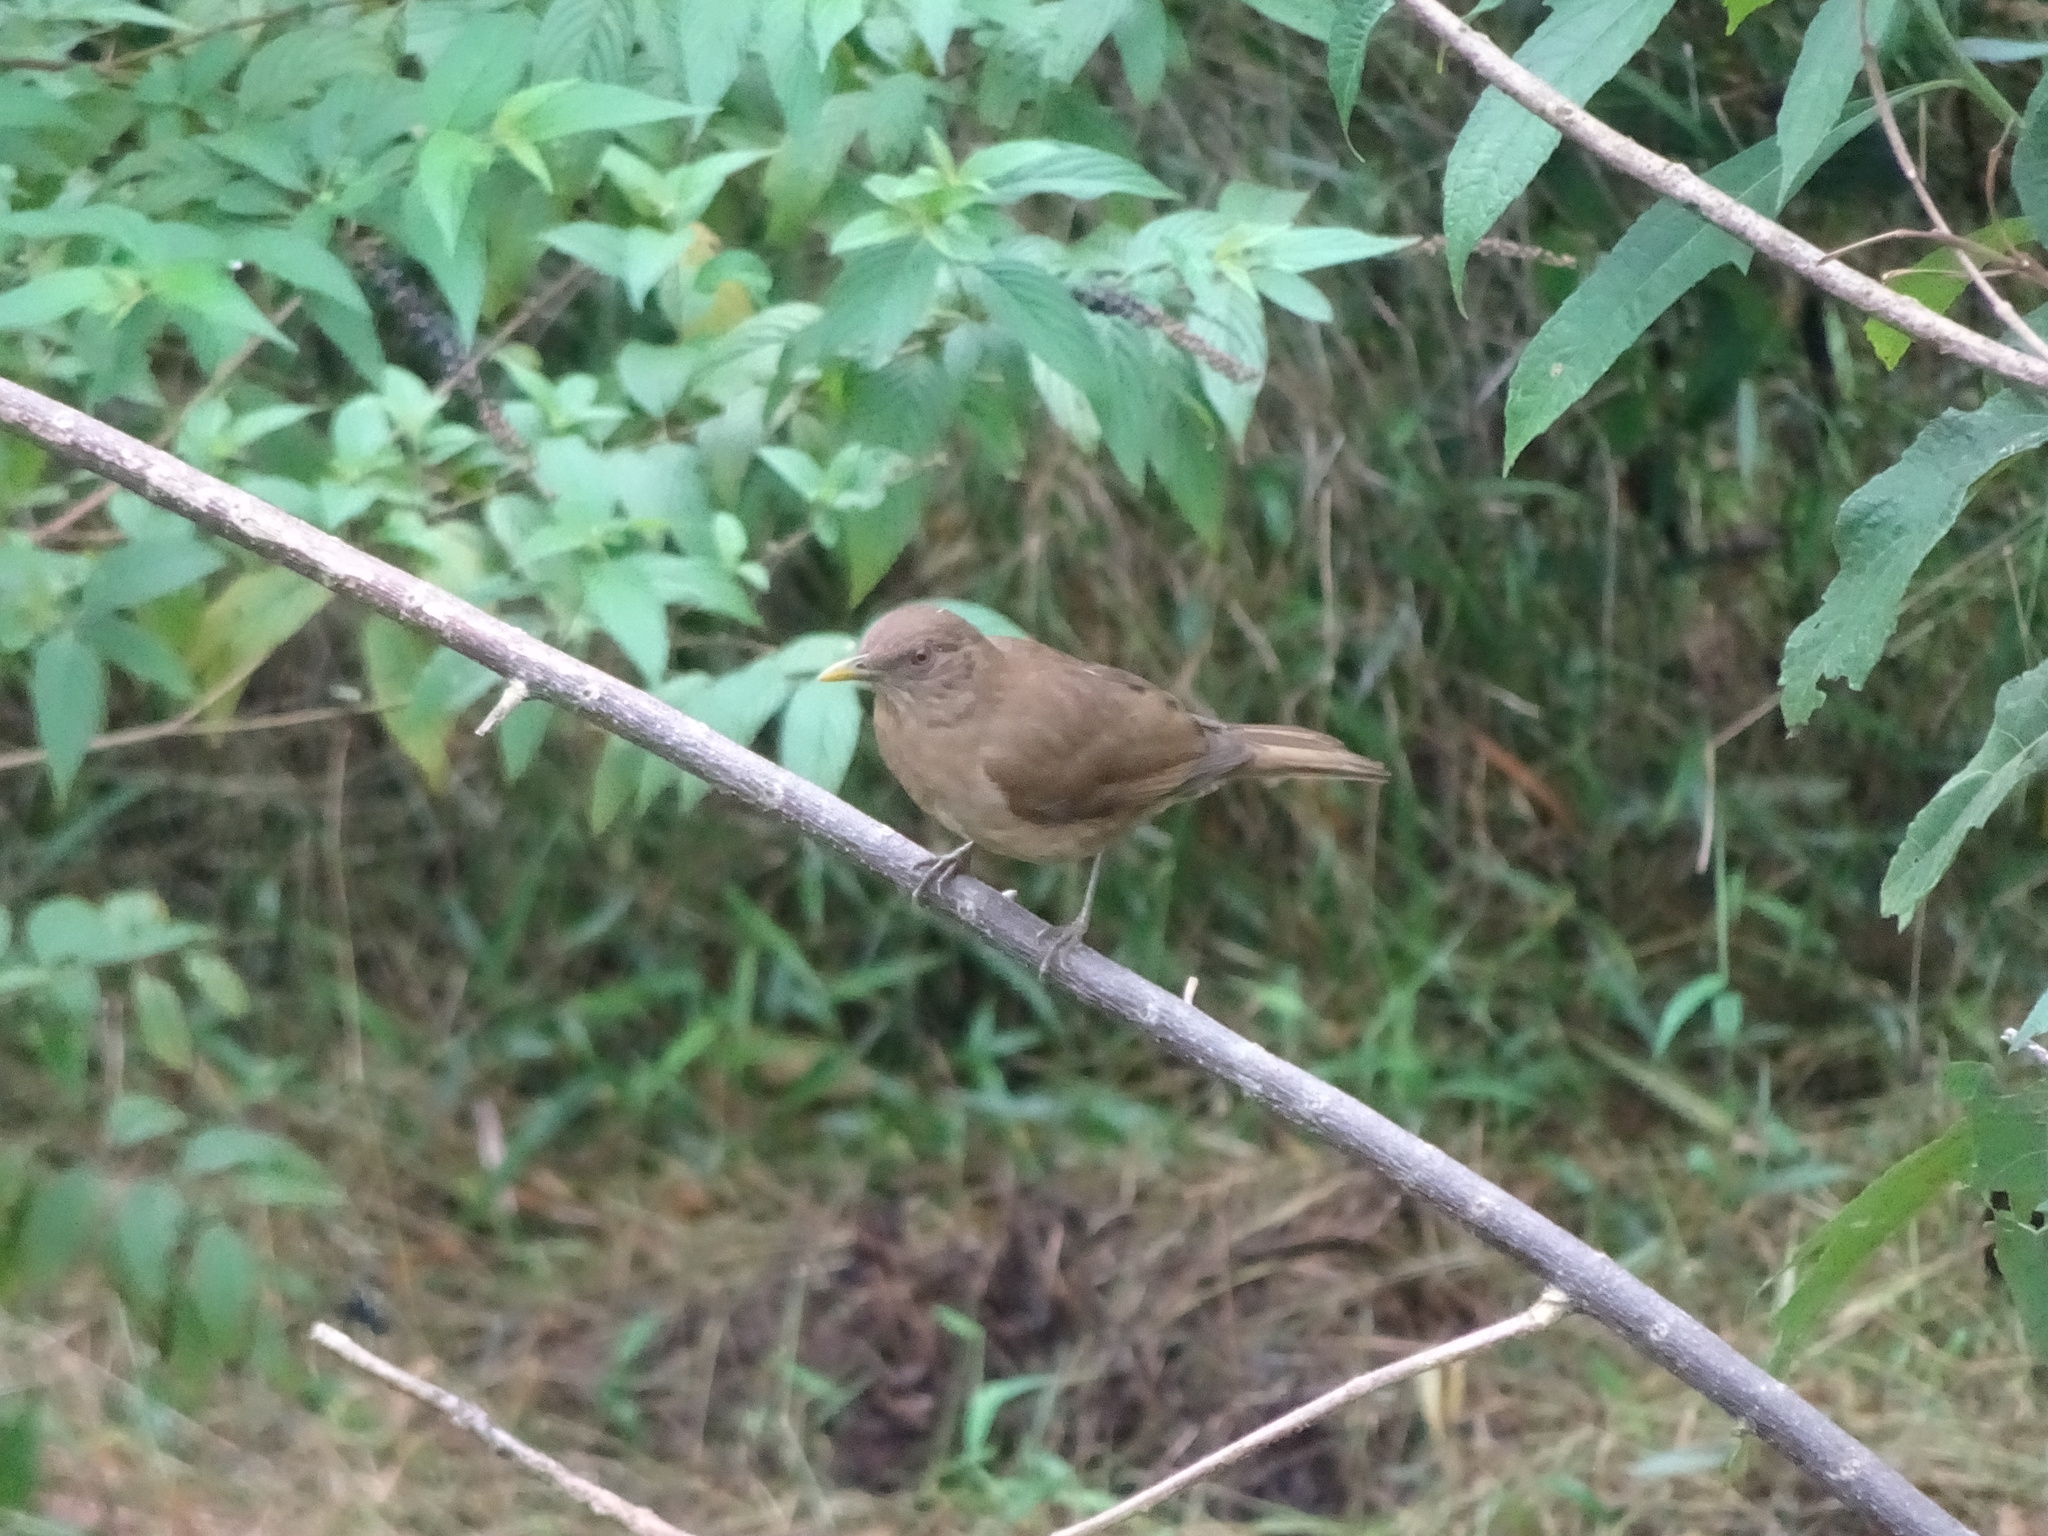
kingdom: Animalia
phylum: Chordata
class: Aves
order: Passeriformes
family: Turdidae
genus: Turdus
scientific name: Turdus grayi
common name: Clay-colored thrush
